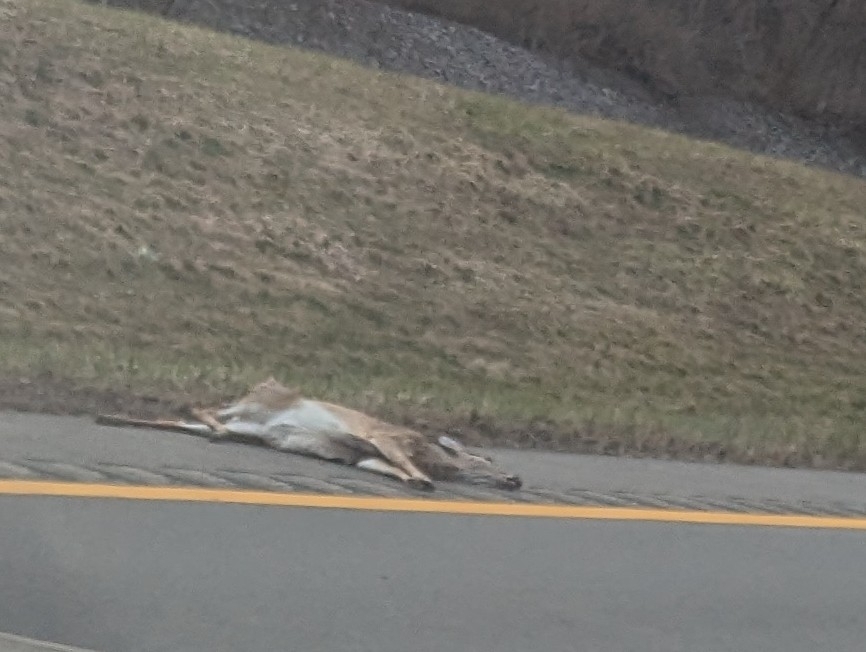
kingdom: Animalia
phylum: Chordata
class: Mammalia
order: Artiodactyla
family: Cervidae
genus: Odocoileus
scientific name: Odocoileus virginianus
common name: White-tailed deer
